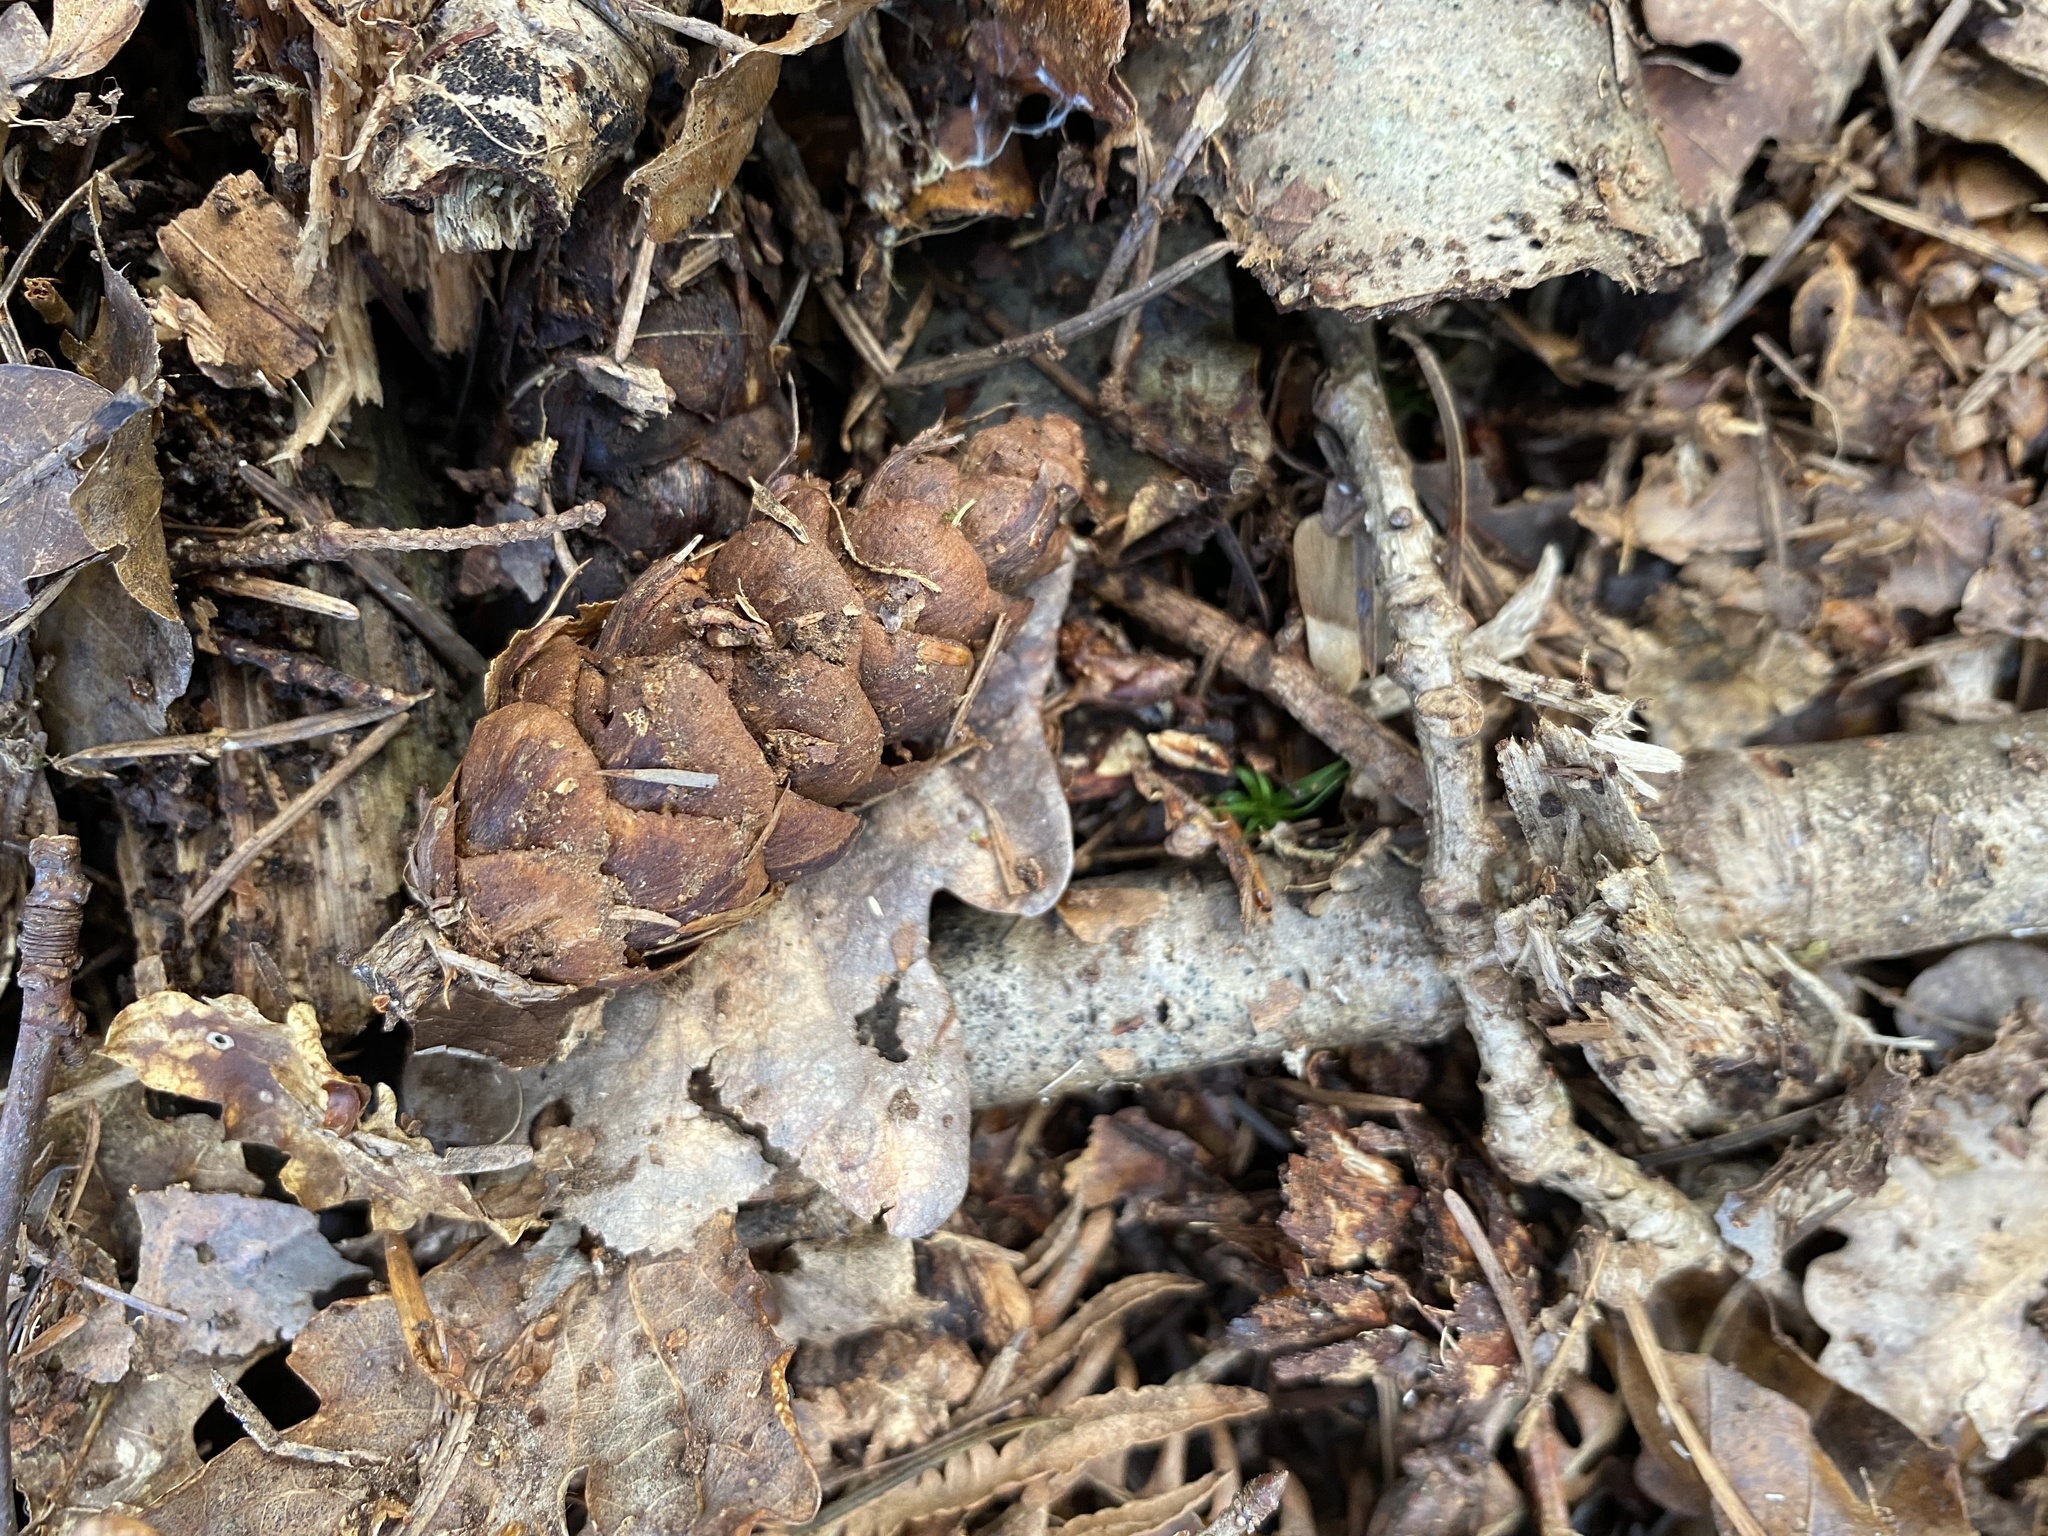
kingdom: Plantae
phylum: Tracheophyta
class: Pinopsida
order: Pinales
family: Pinaceae
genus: Pseudotsuga
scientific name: Pseudotsuga menziesii
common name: Douglas fir
